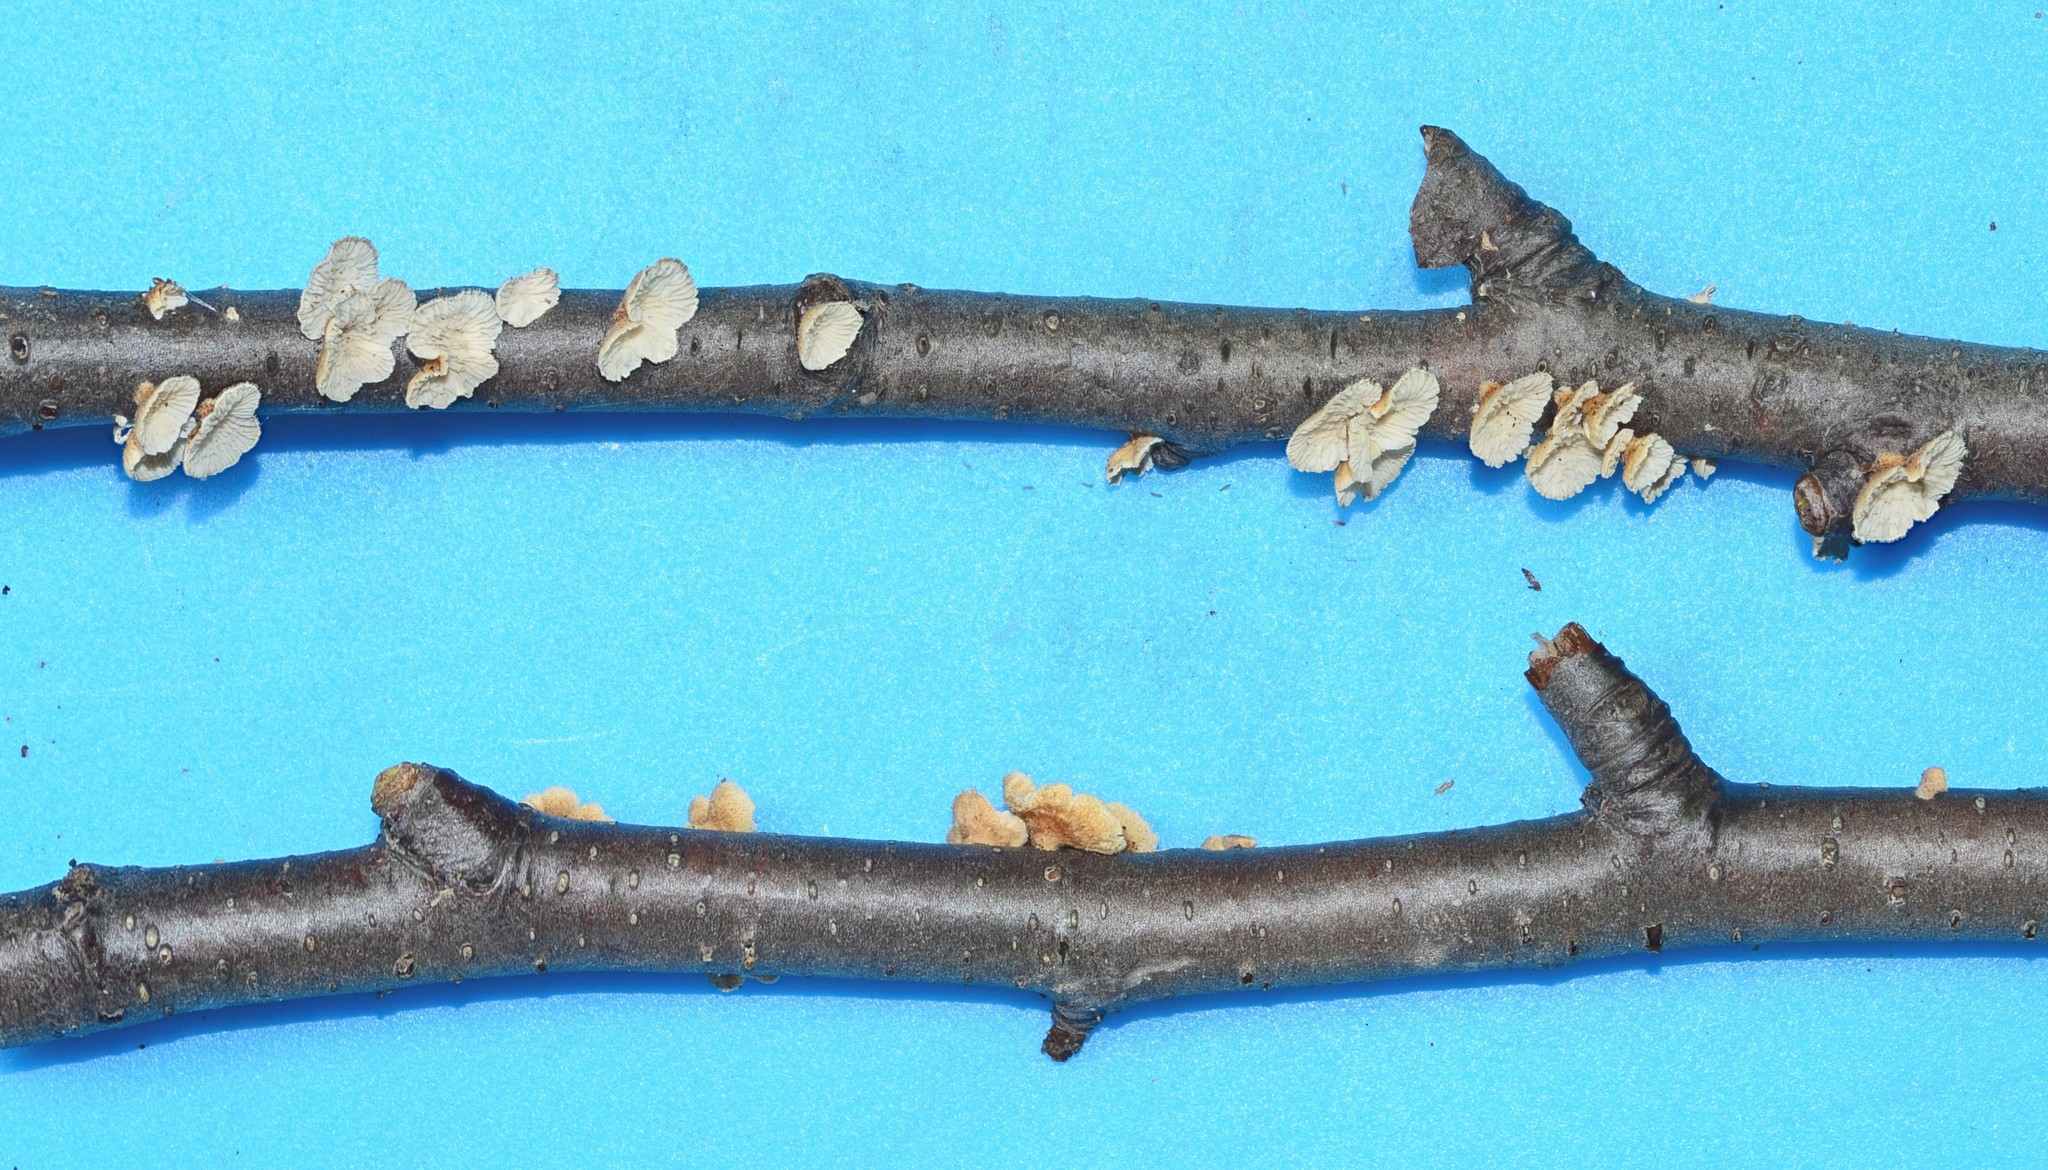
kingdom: Fungi
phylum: Basidiomycota
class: Agaricomycetes
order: Amylocorticiales
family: Amylocorticiaceae
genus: Plicaturopsis
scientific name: Plicaturopsis crispa
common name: Crimped gill
